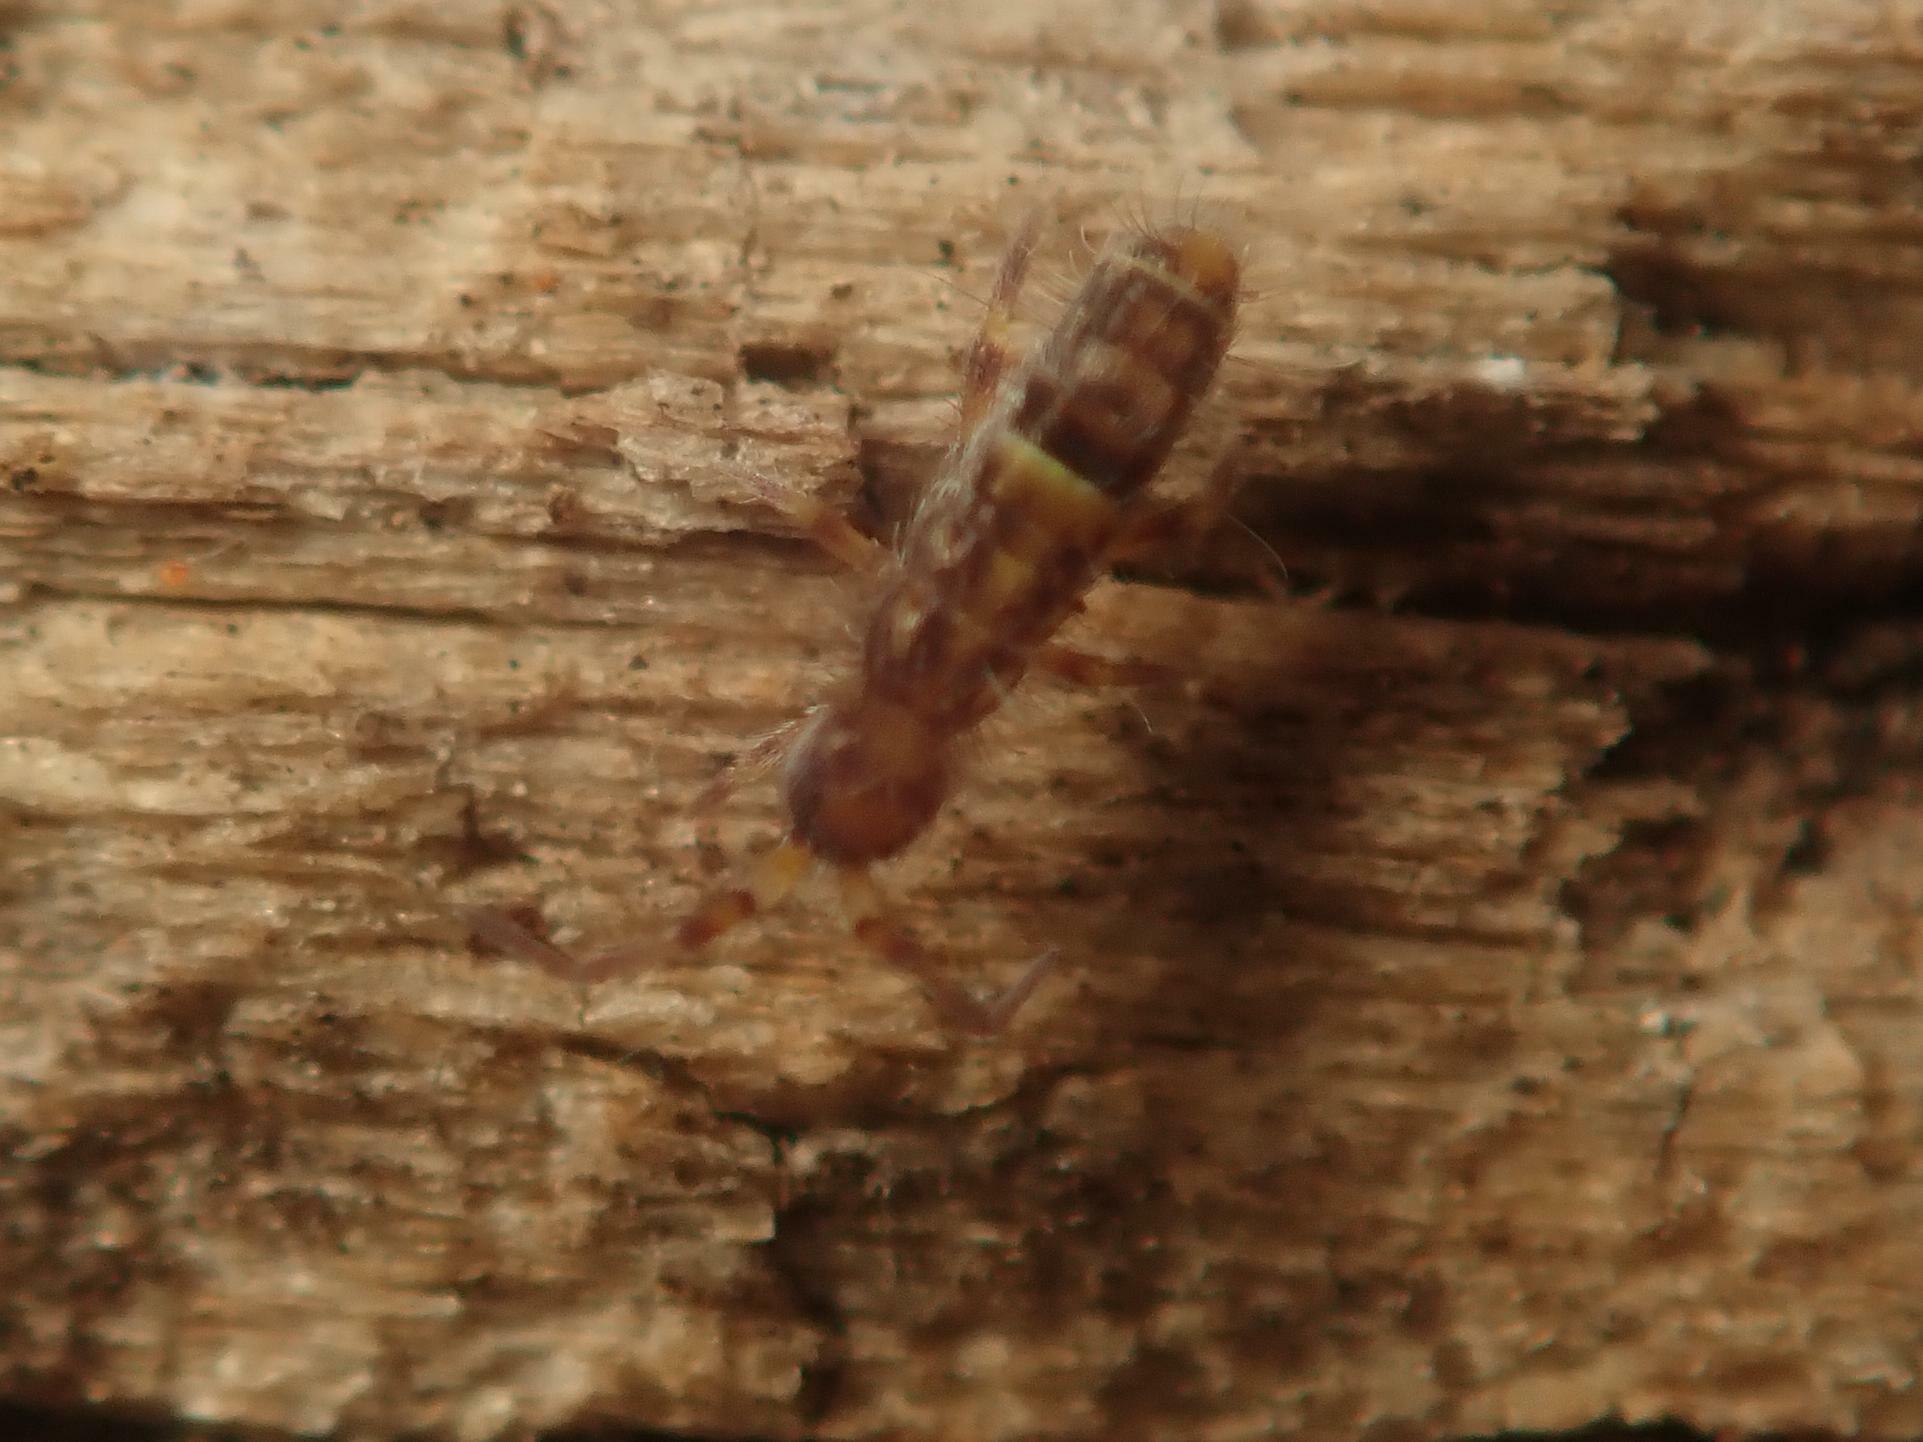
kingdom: Animalia
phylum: Arthropoda
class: Collembola
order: Entomobryomorpha
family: Orchesellidae
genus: Orchesella
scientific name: Orchesella cincta
